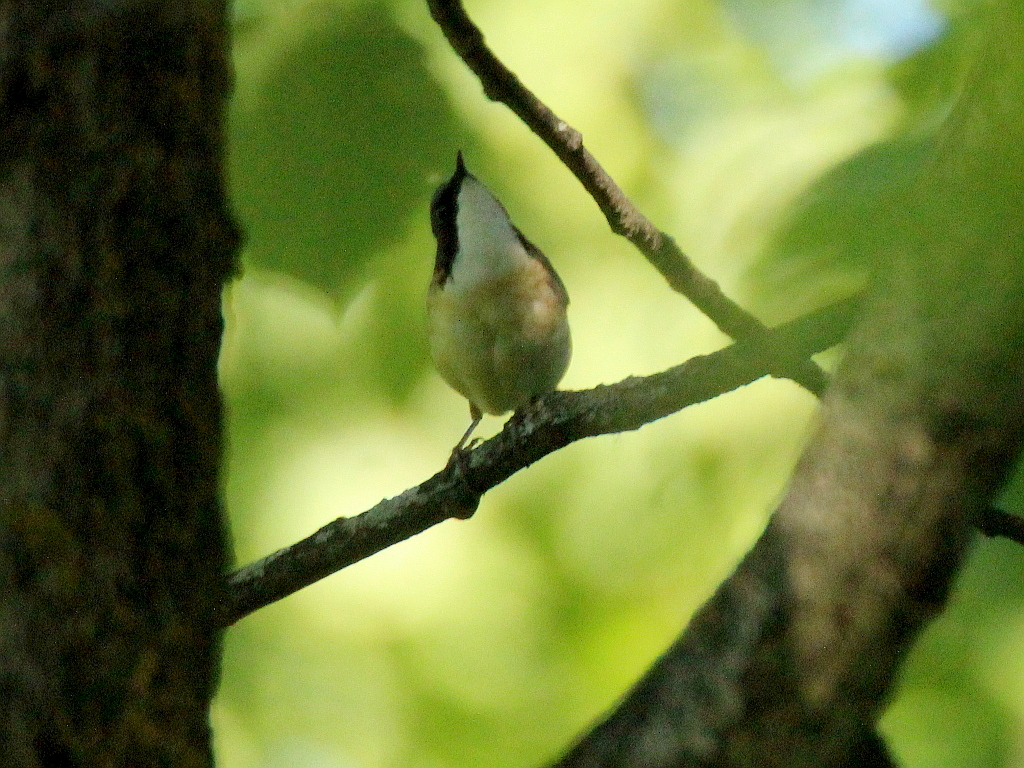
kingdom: Animalia
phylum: Chordata
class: Aves
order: Passeriformes
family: Muscicapidae
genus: Luscinia
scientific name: Luscinia cyane
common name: Siberian blue robin
